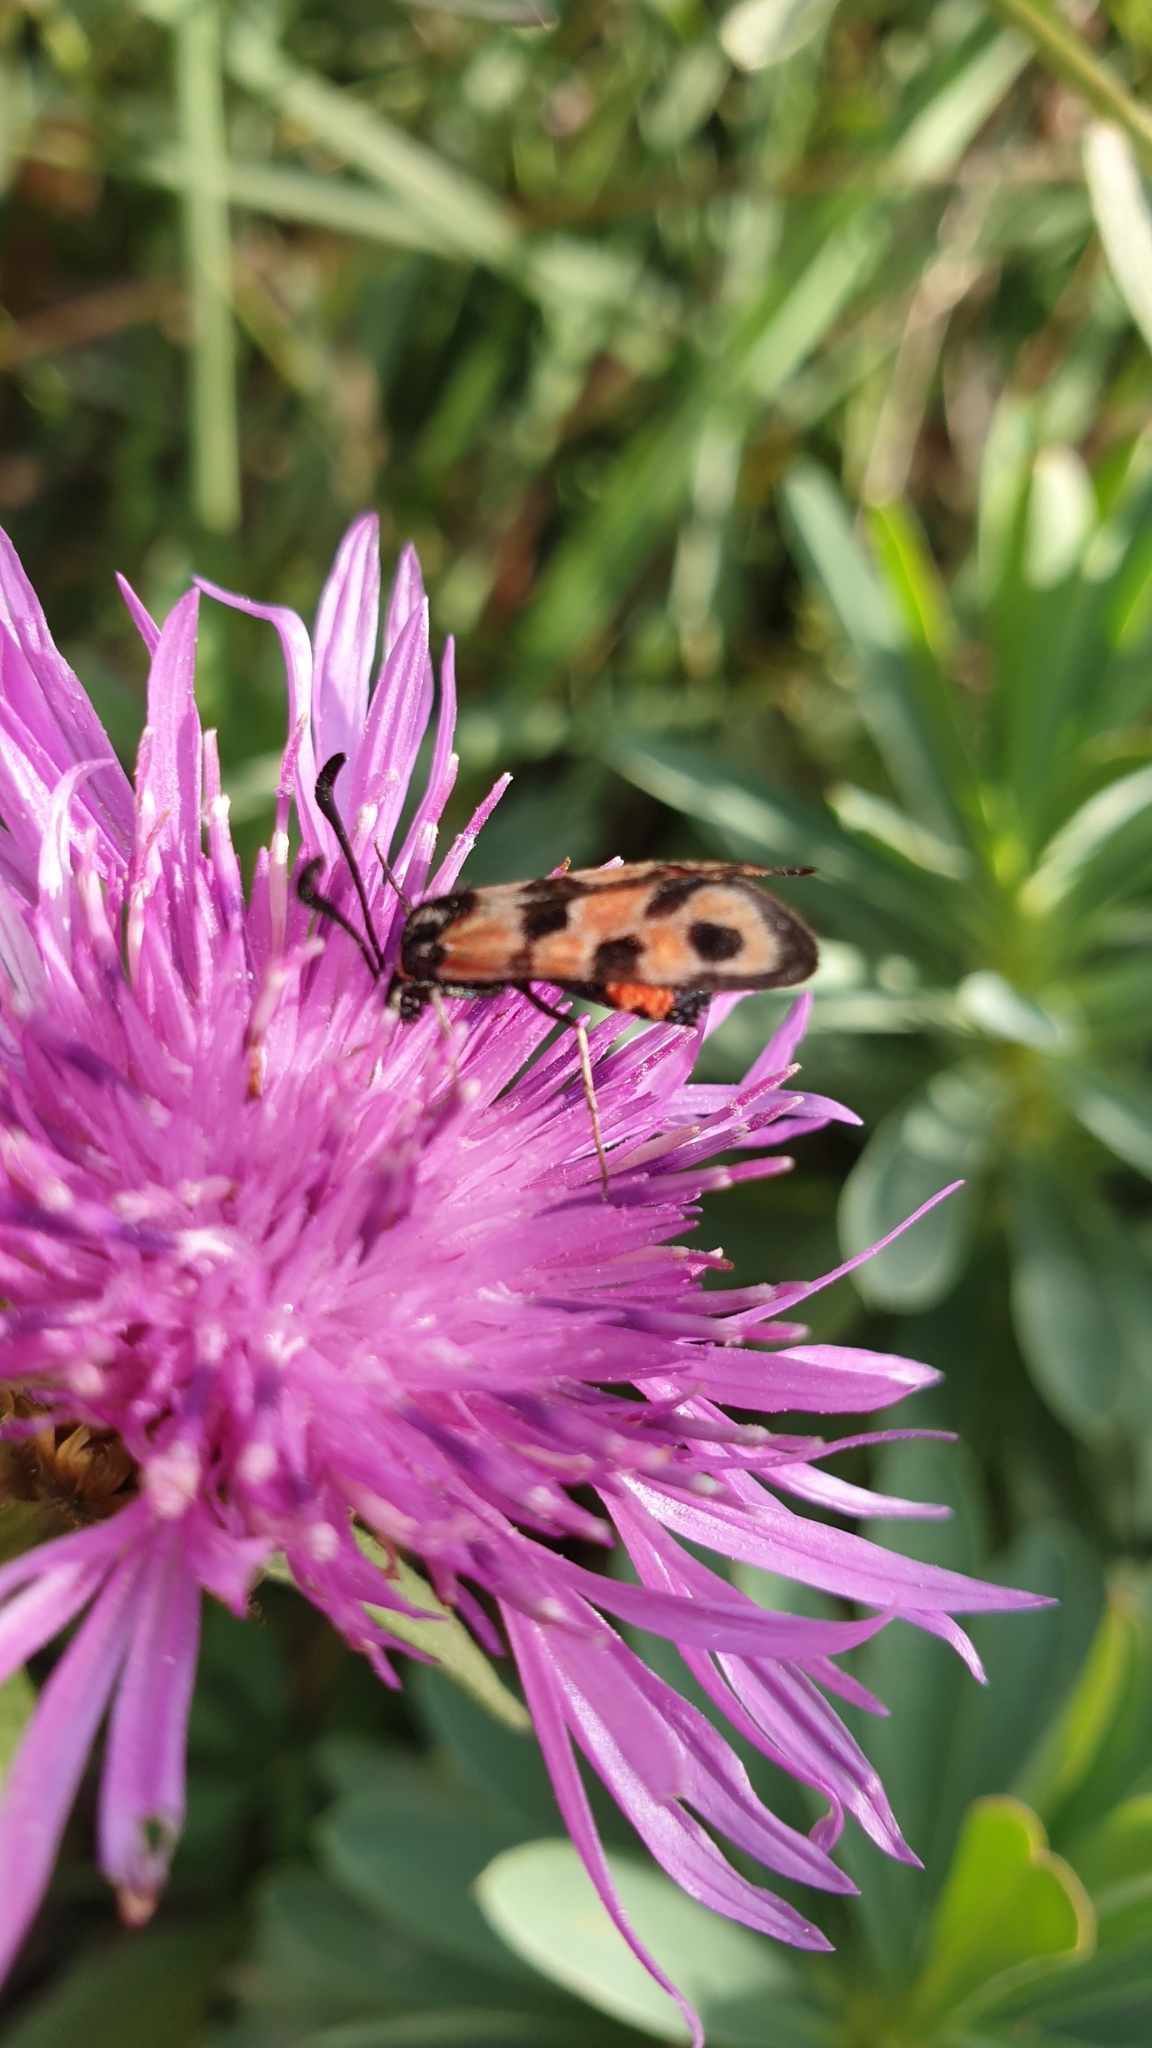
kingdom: Animalia
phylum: Arthropoda
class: Insecta
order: Lepidoptera
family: Zygaenidae
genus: Zygaena
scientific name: Zygaena fausta
